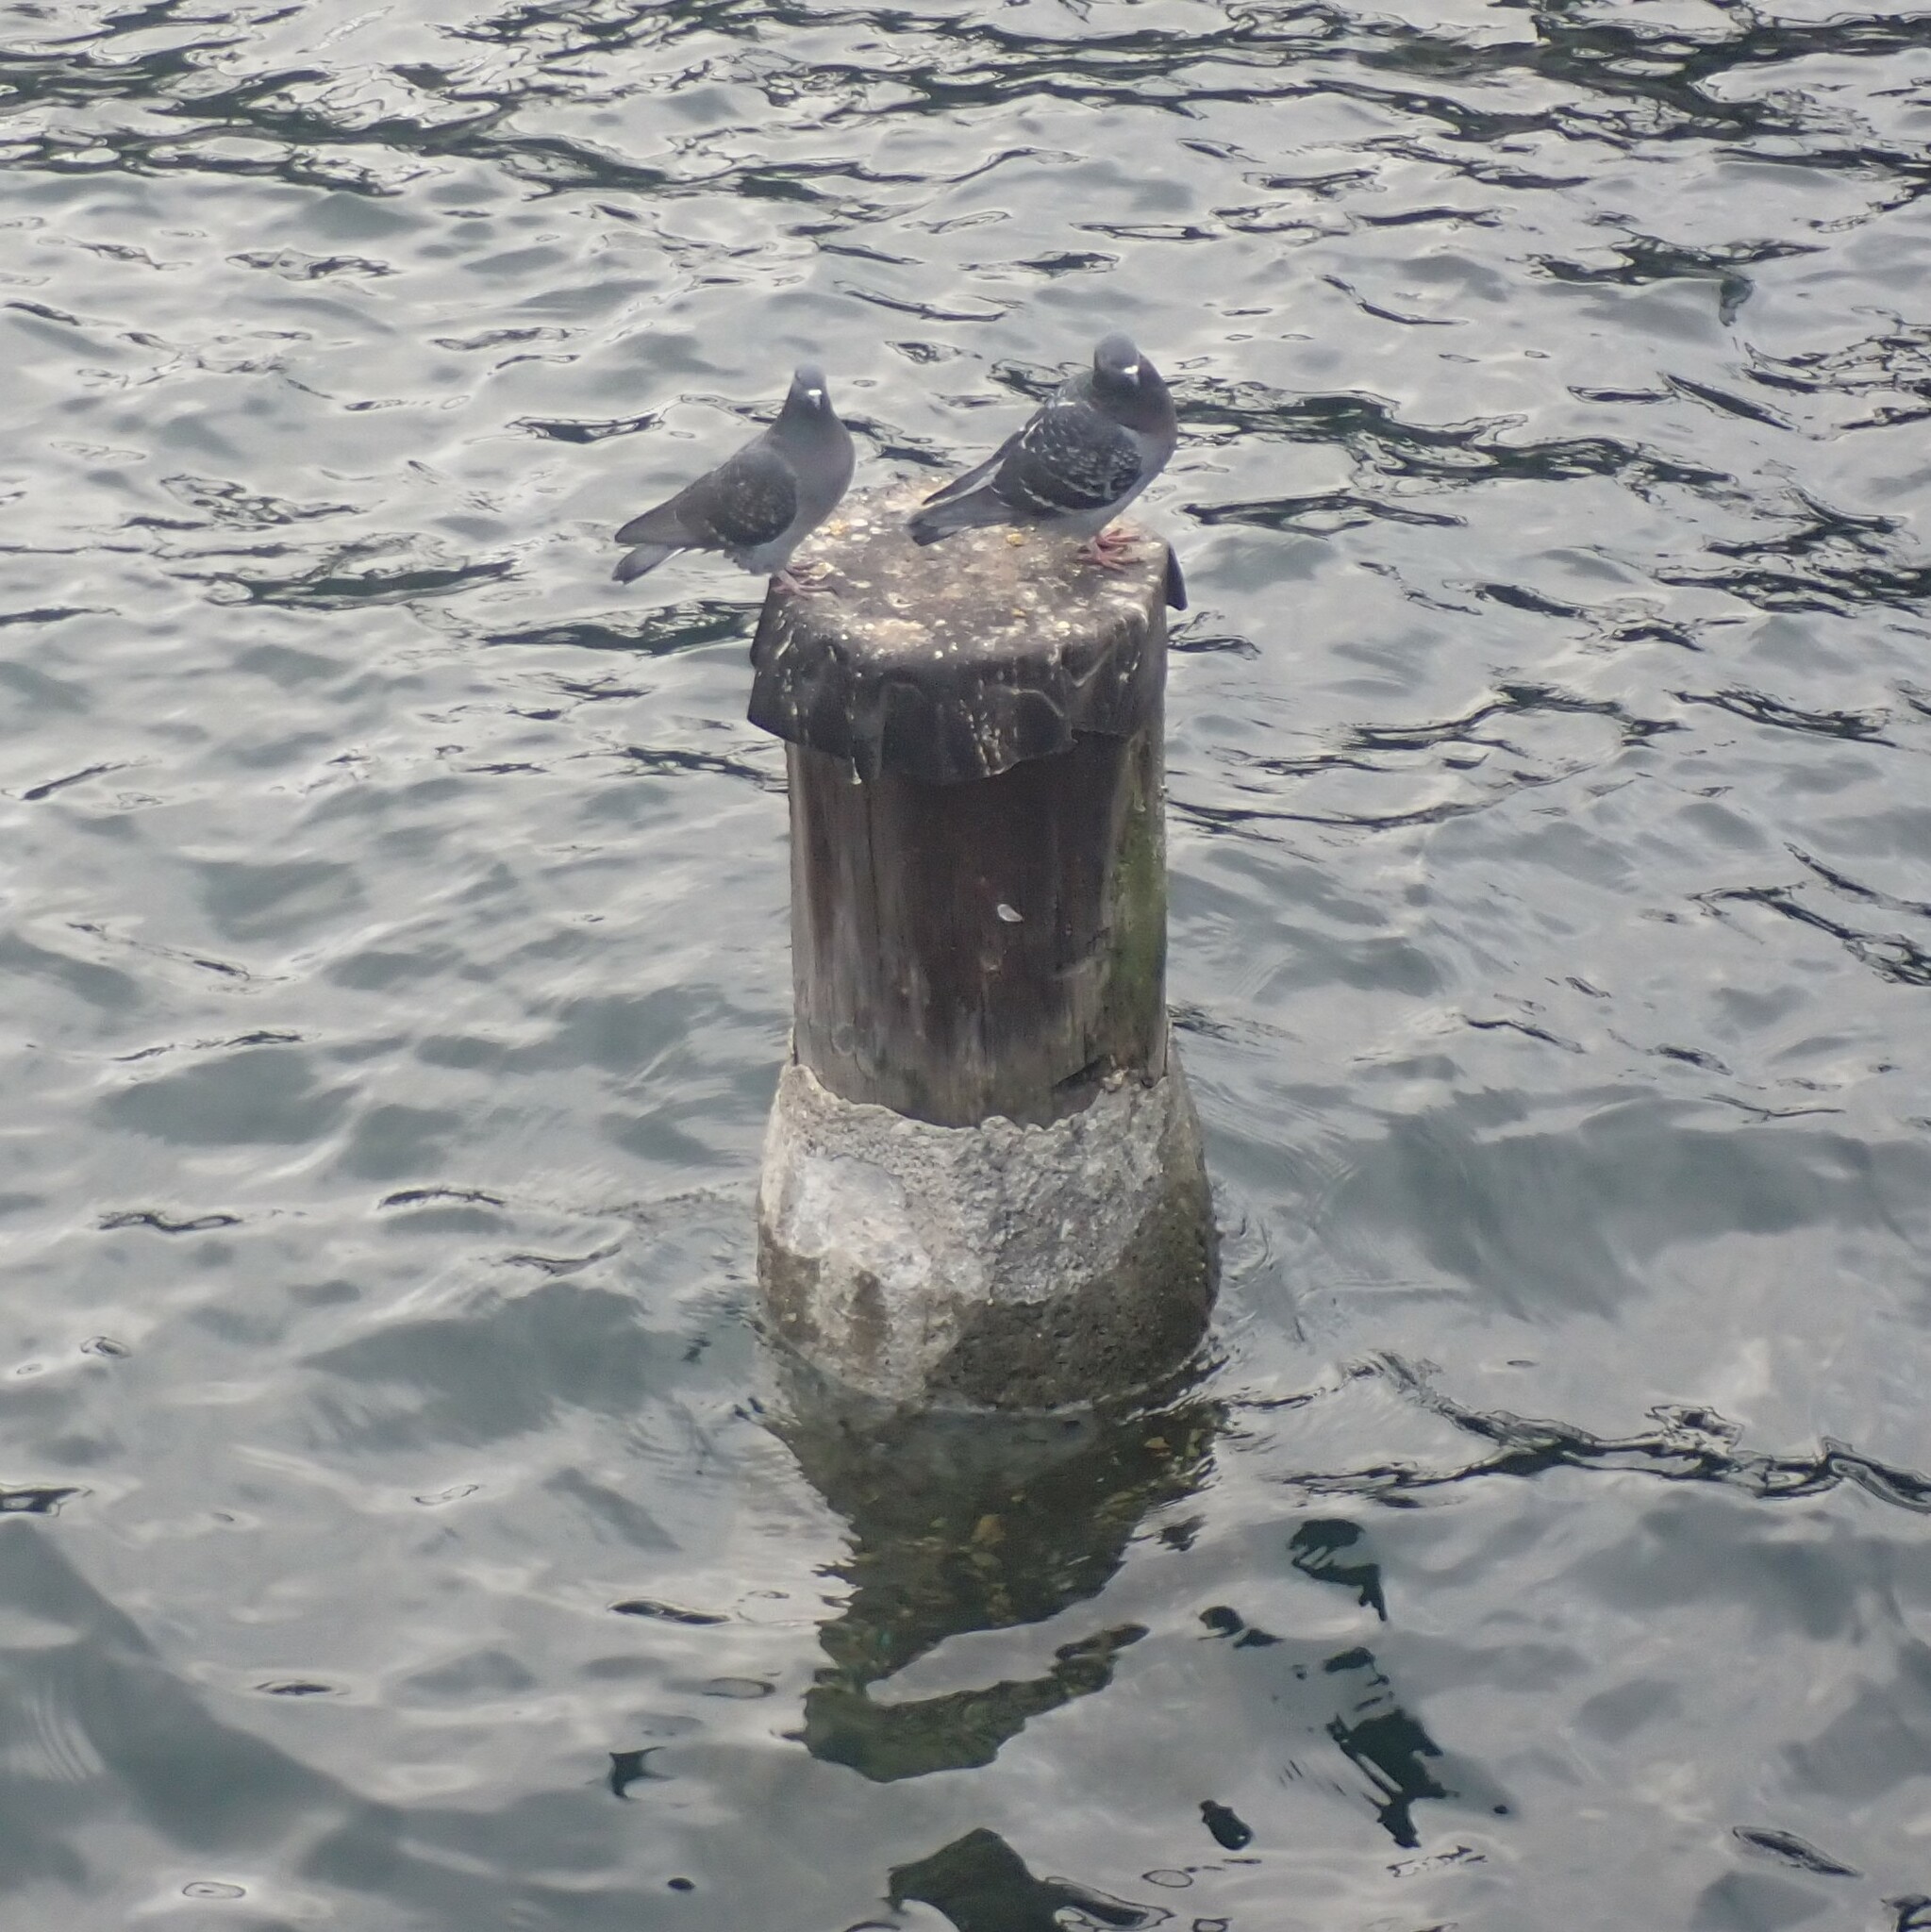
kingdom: Animalia
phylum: Chordata
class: Aves
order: Columbiformes
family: Columbidae
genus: Columba
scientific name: Columba livia
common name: Rock pigeon
